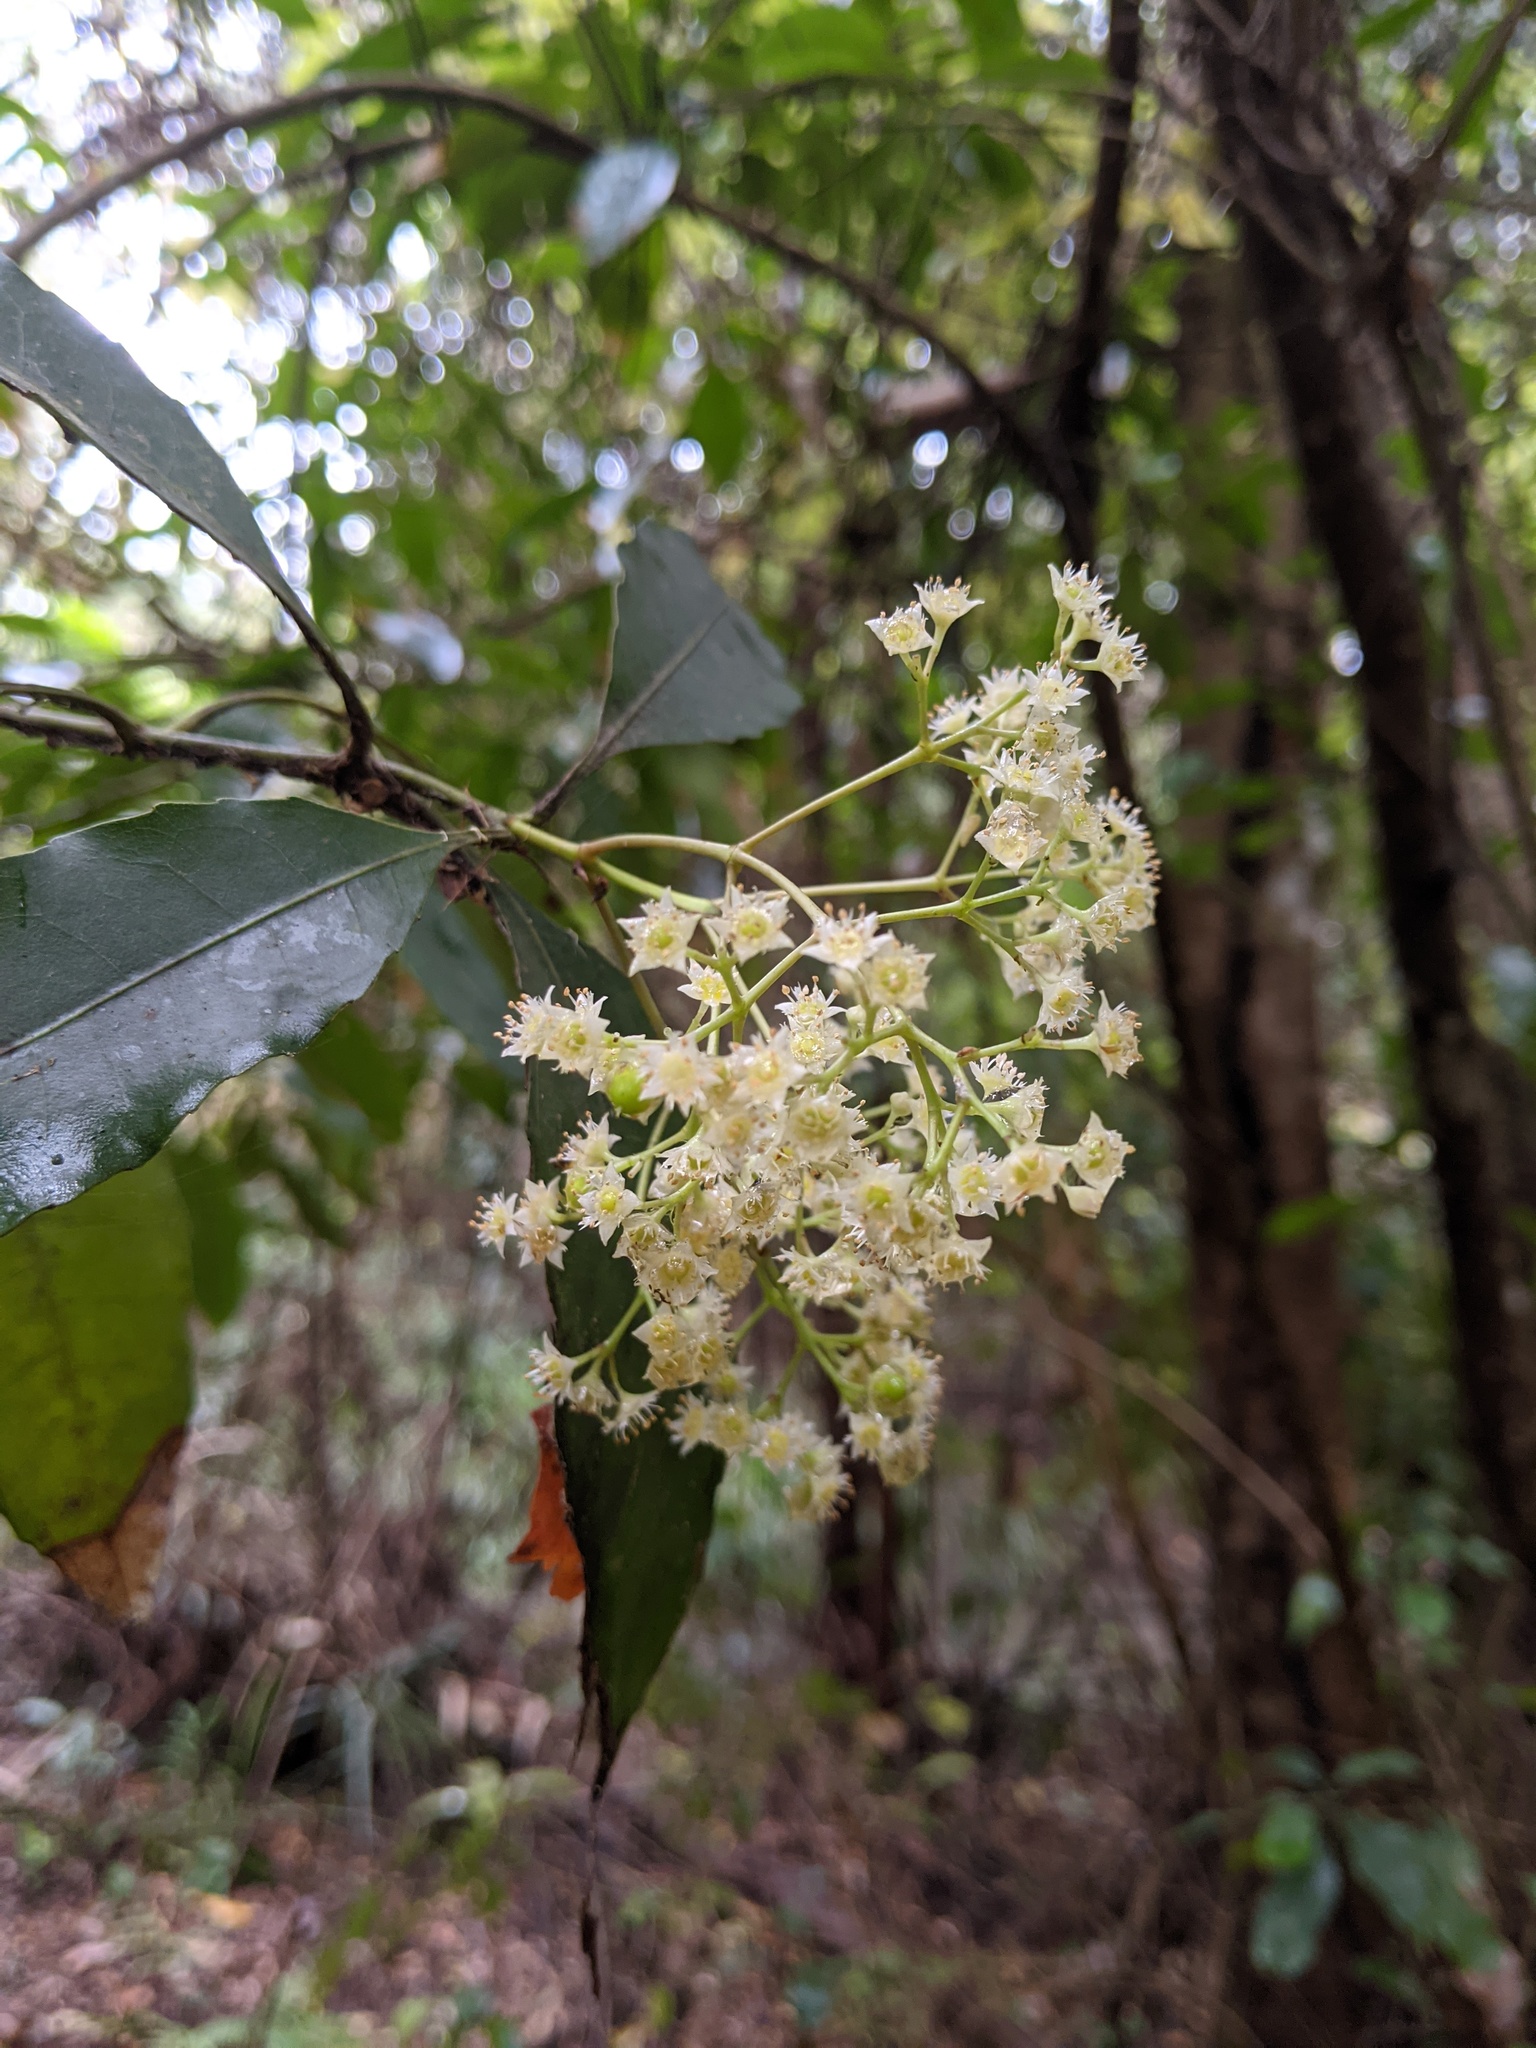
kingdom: Plantae
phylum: Tracheophyta
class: Magnoliopsida
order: Oxalidales
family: Cunoniaceae
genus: Schizomeria
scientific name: Schizomeria ovata
